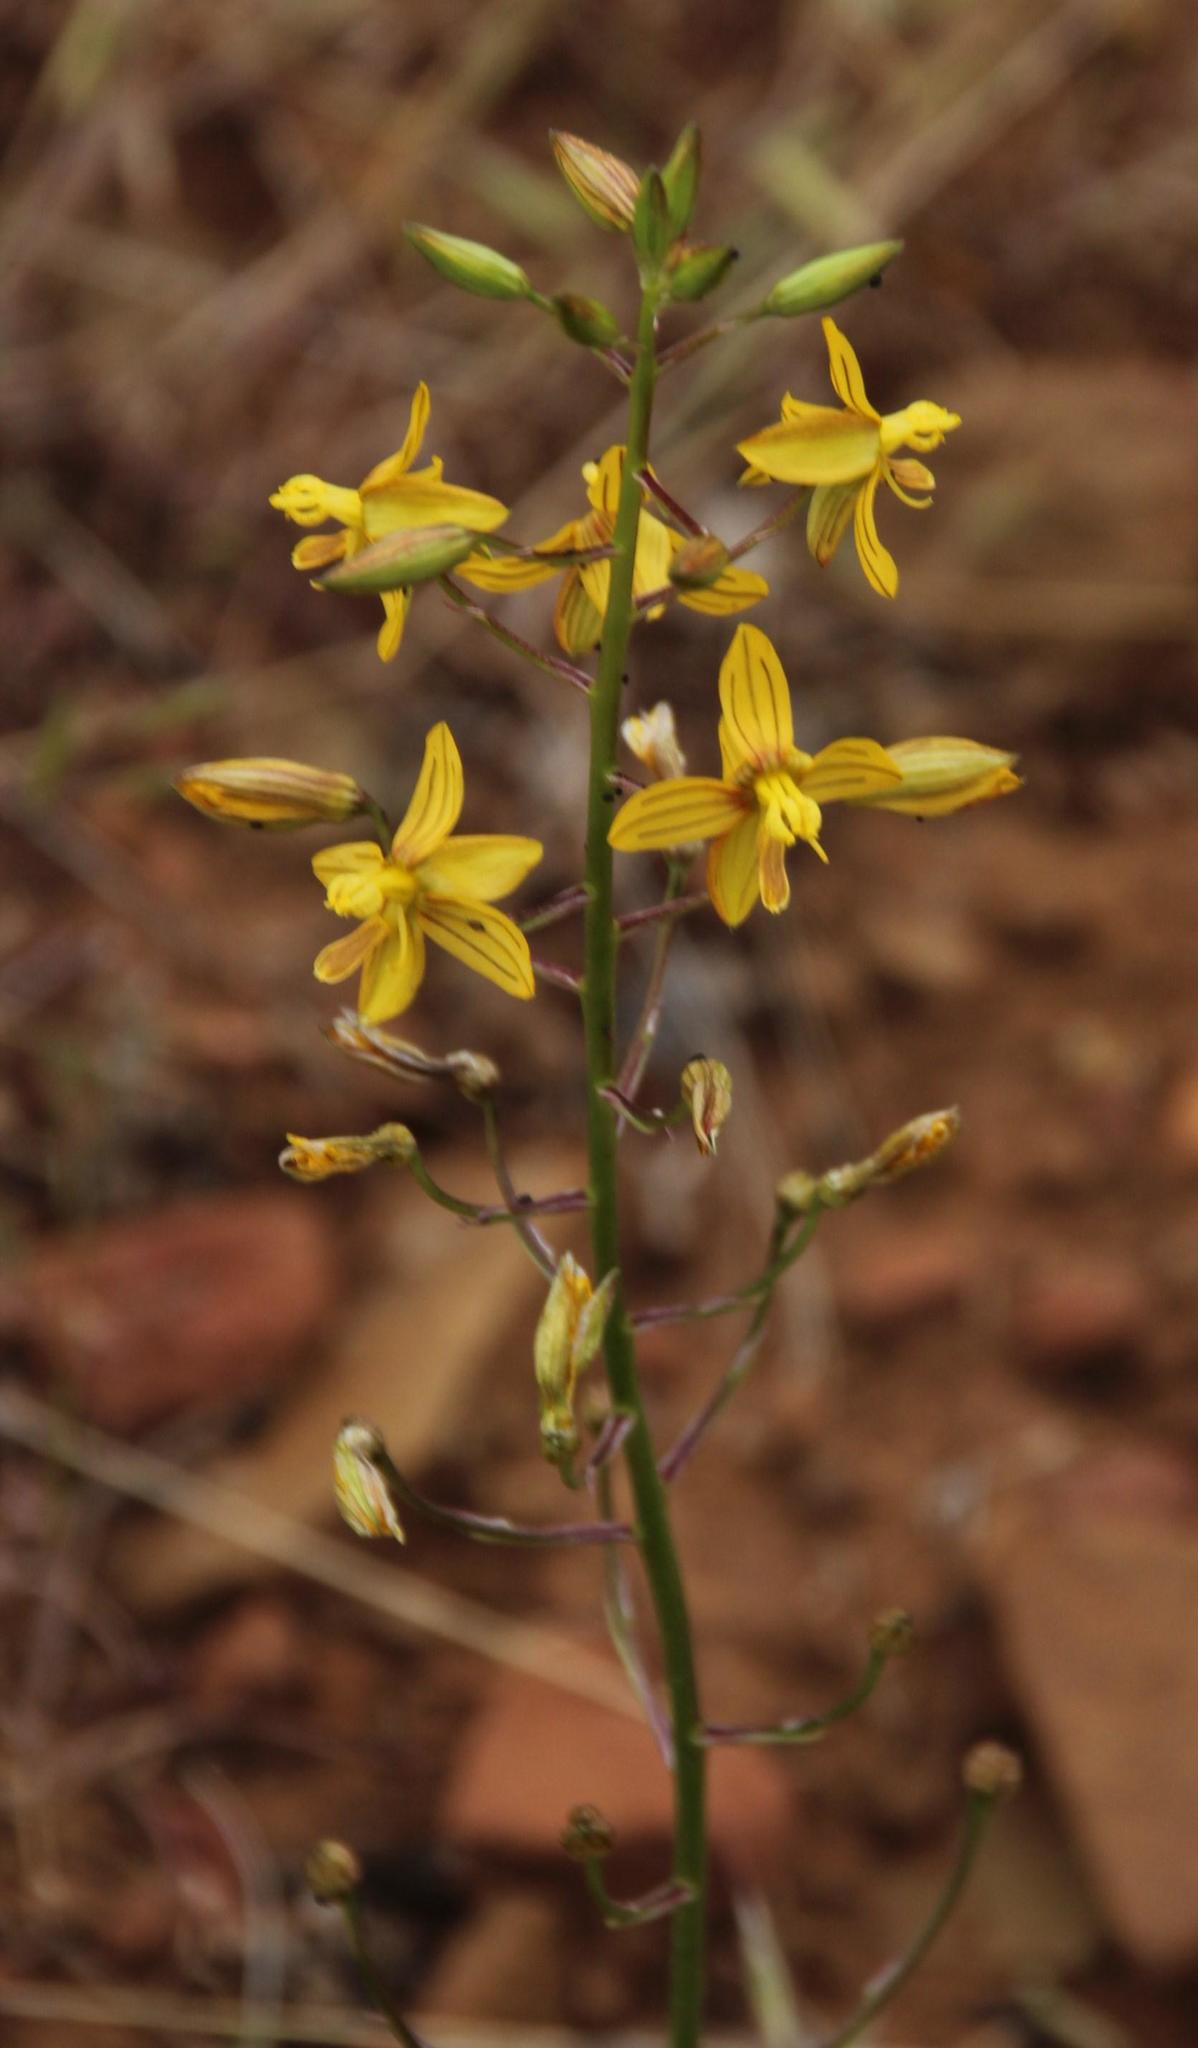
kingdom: Plantae
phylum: Tracheophyta
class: Liliopsida
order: Asparagales
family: Tecophilaeaceae
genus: Cyanella
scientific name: Cyanella lutea
